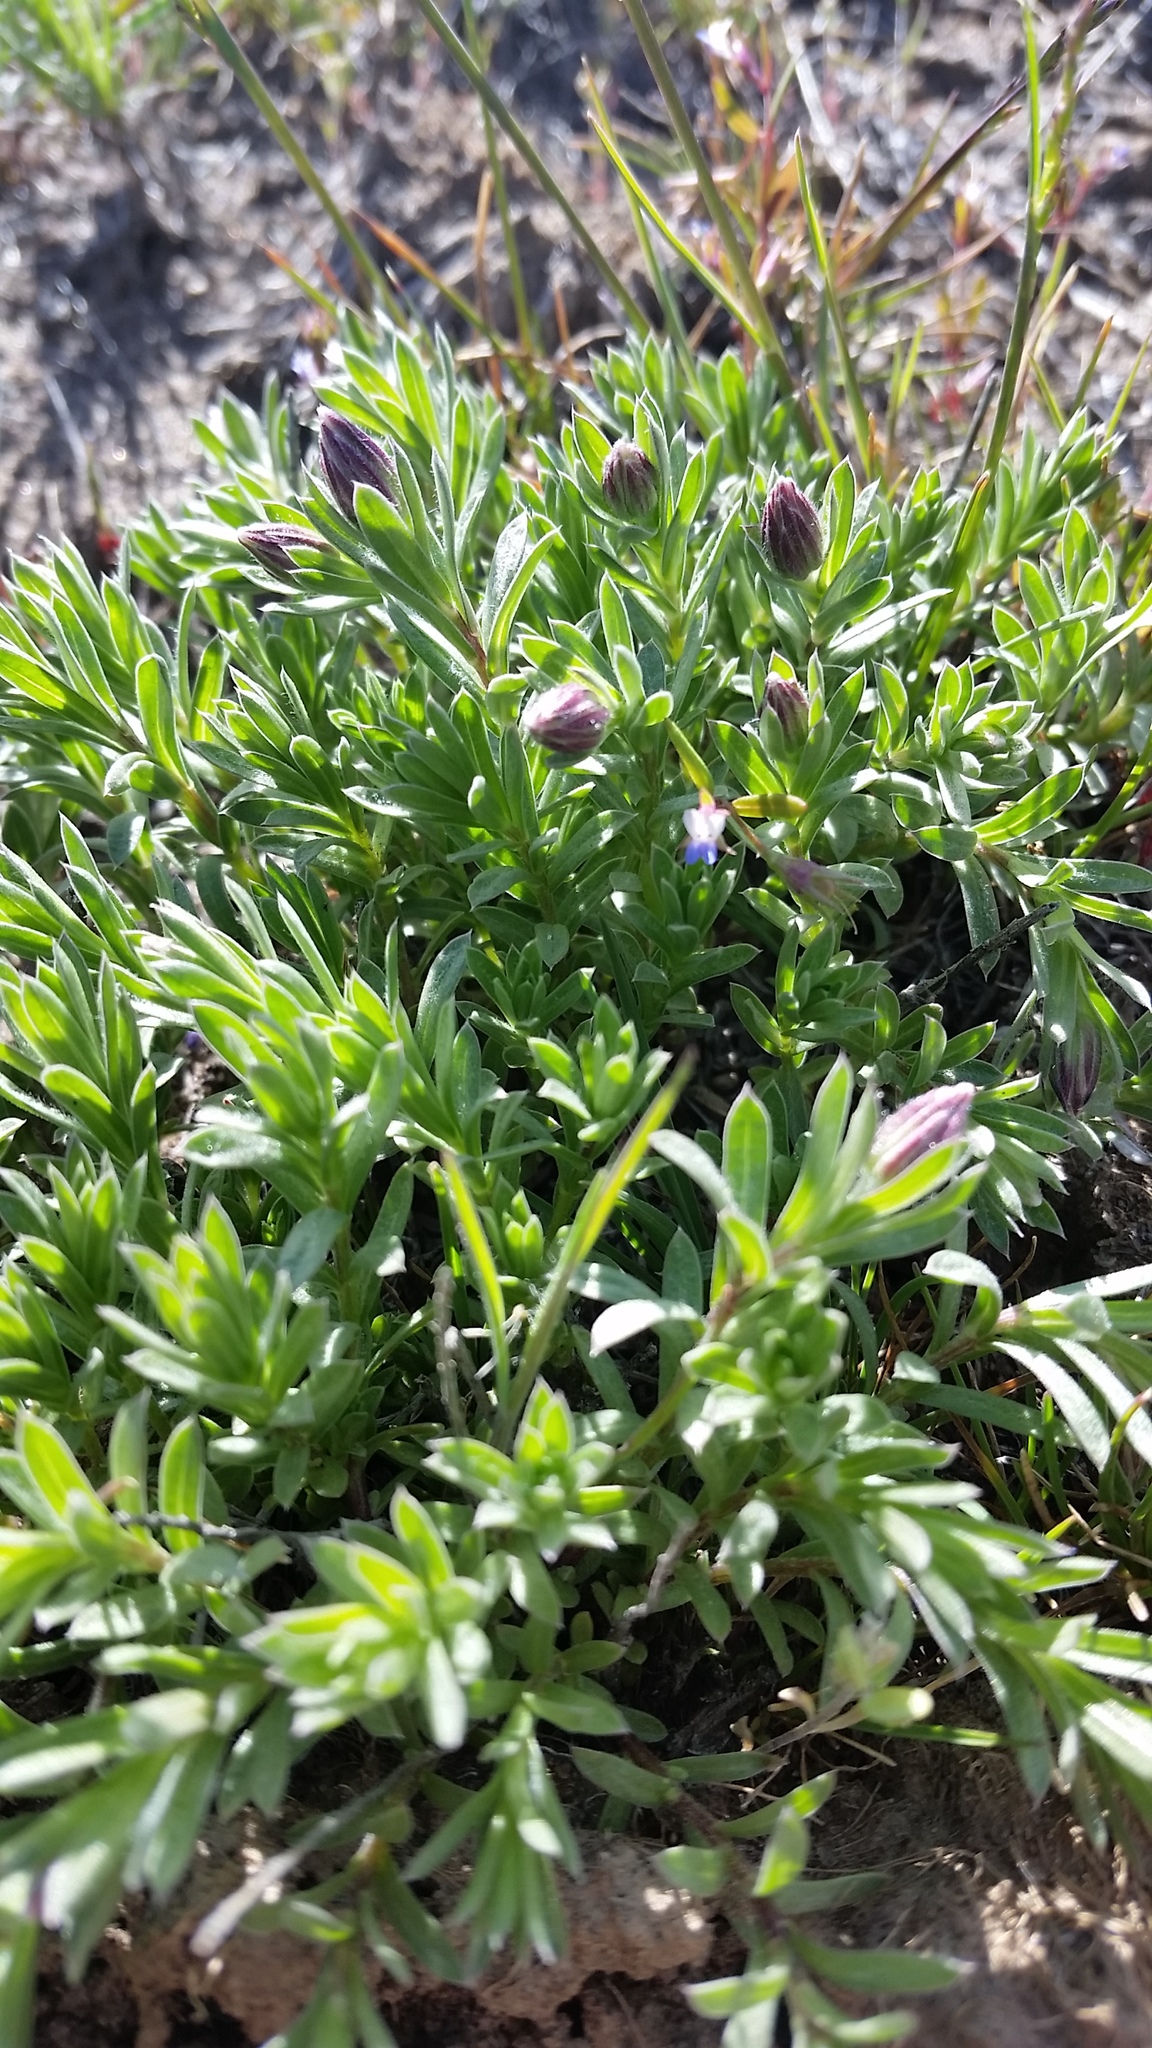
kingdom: Plantae
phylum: Tracheophyta
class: Magnoliopsida
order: Asterales
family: Asteraceae
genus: Ionactis
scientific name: Ionactis alpina
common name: Crag aster
